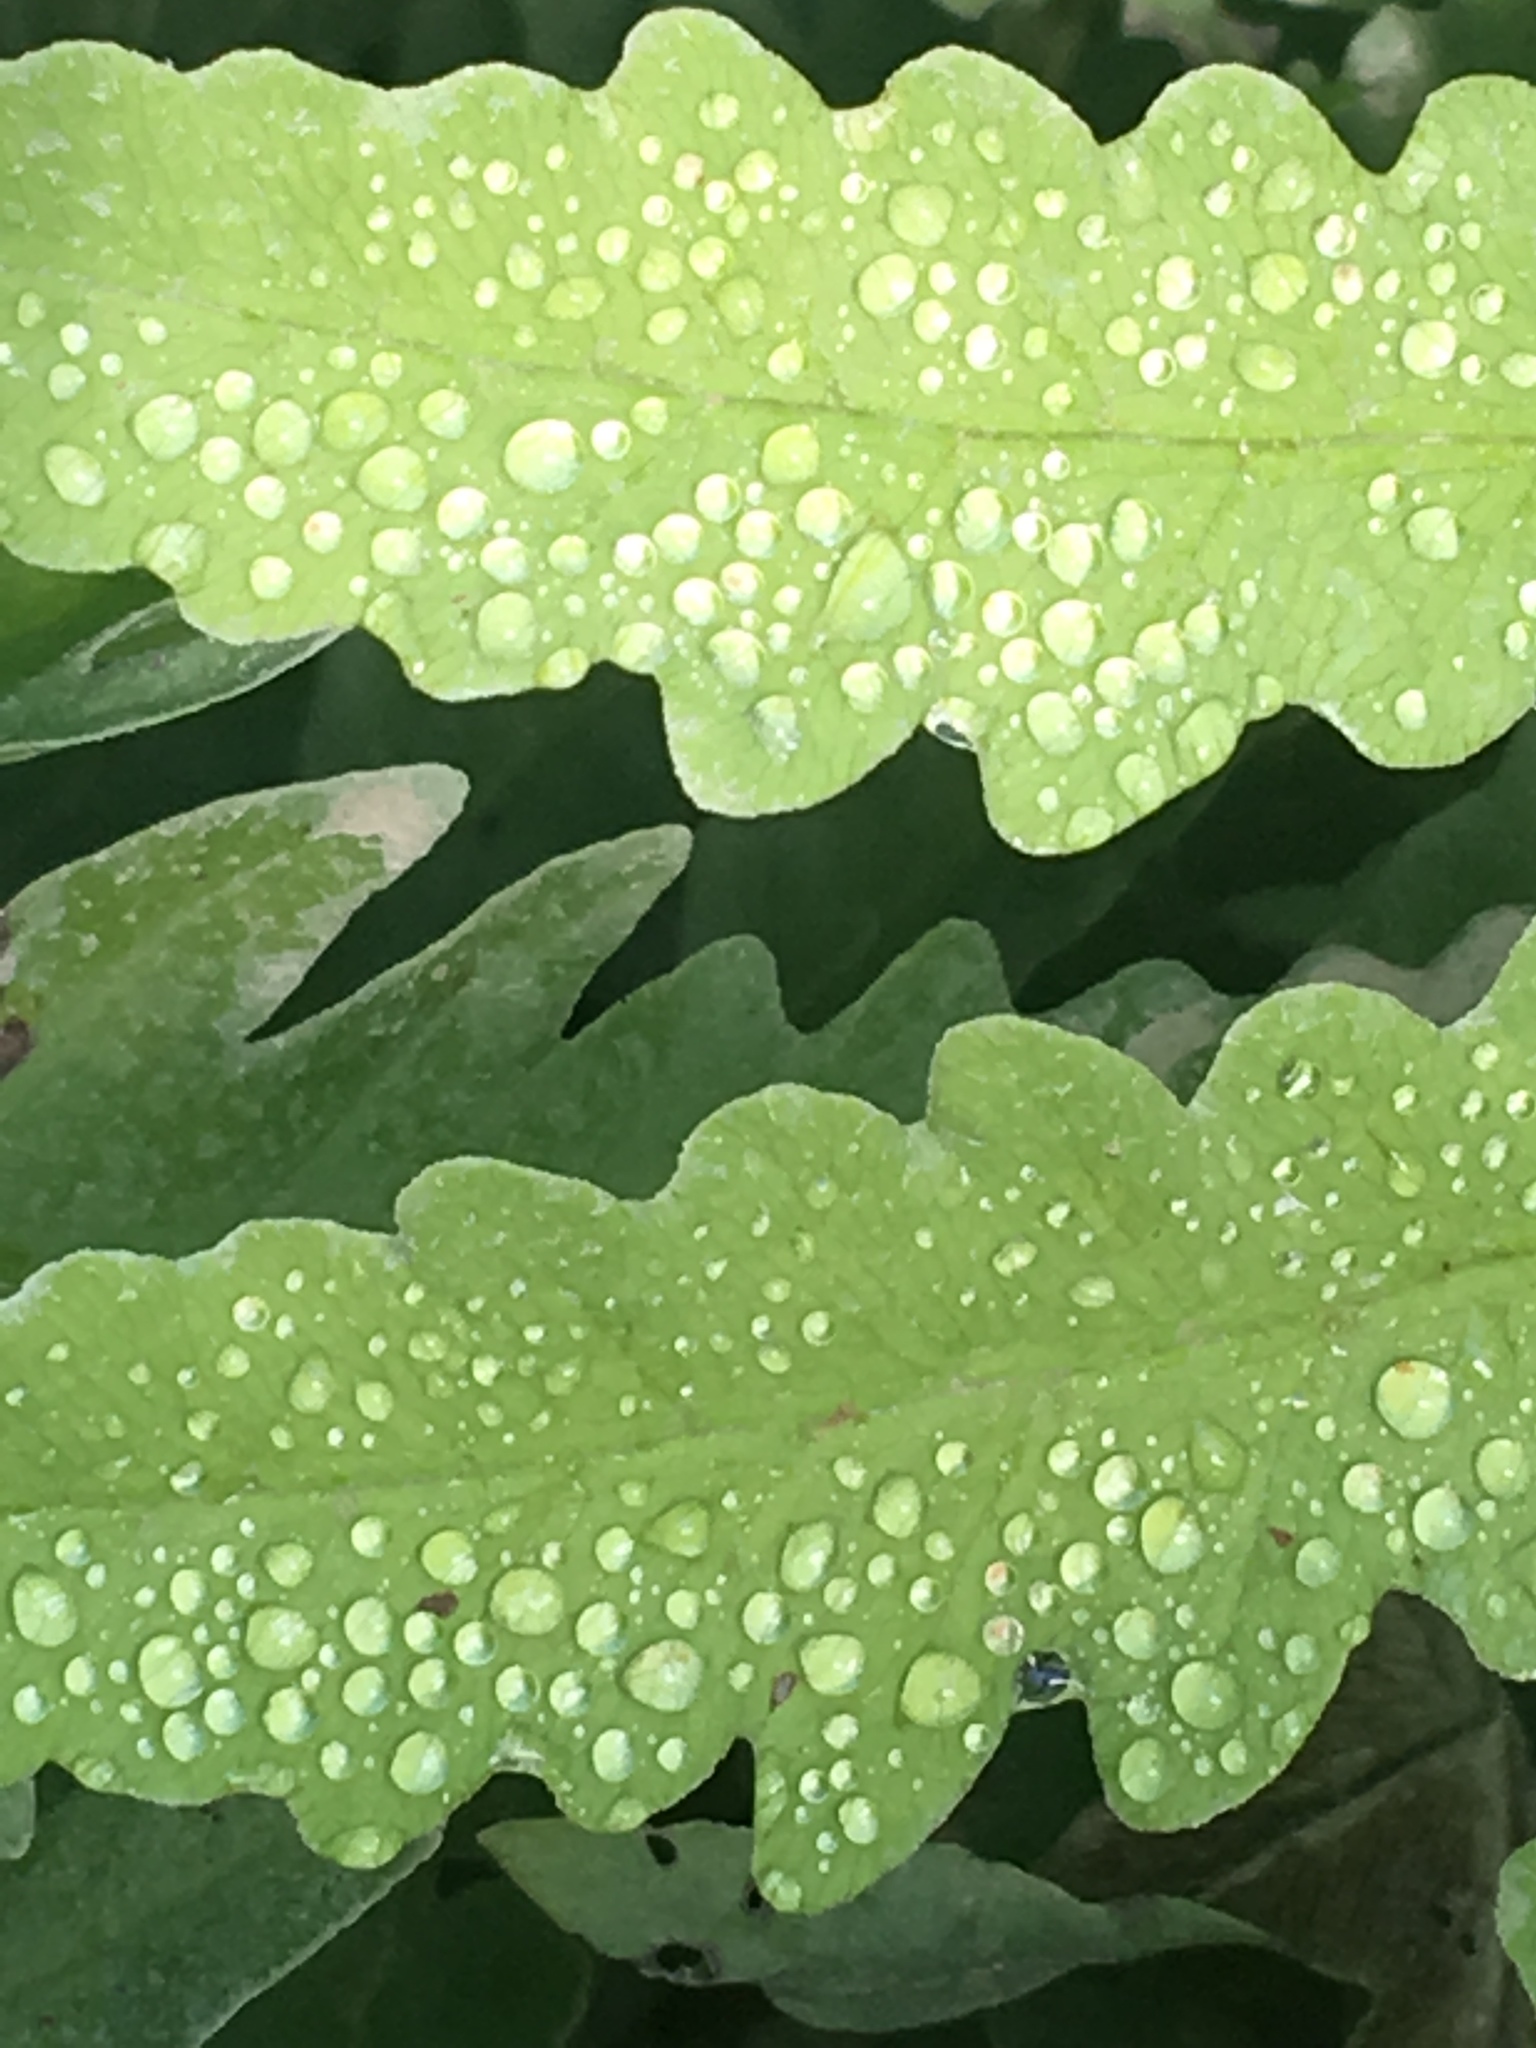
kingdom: Plantae
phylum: Tracheophyta
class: Polypodiopsida
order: Polypodiales
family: Onocleaceae
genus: Onoclea
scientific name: Onoclea sensibilis
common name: Sensitive fern
